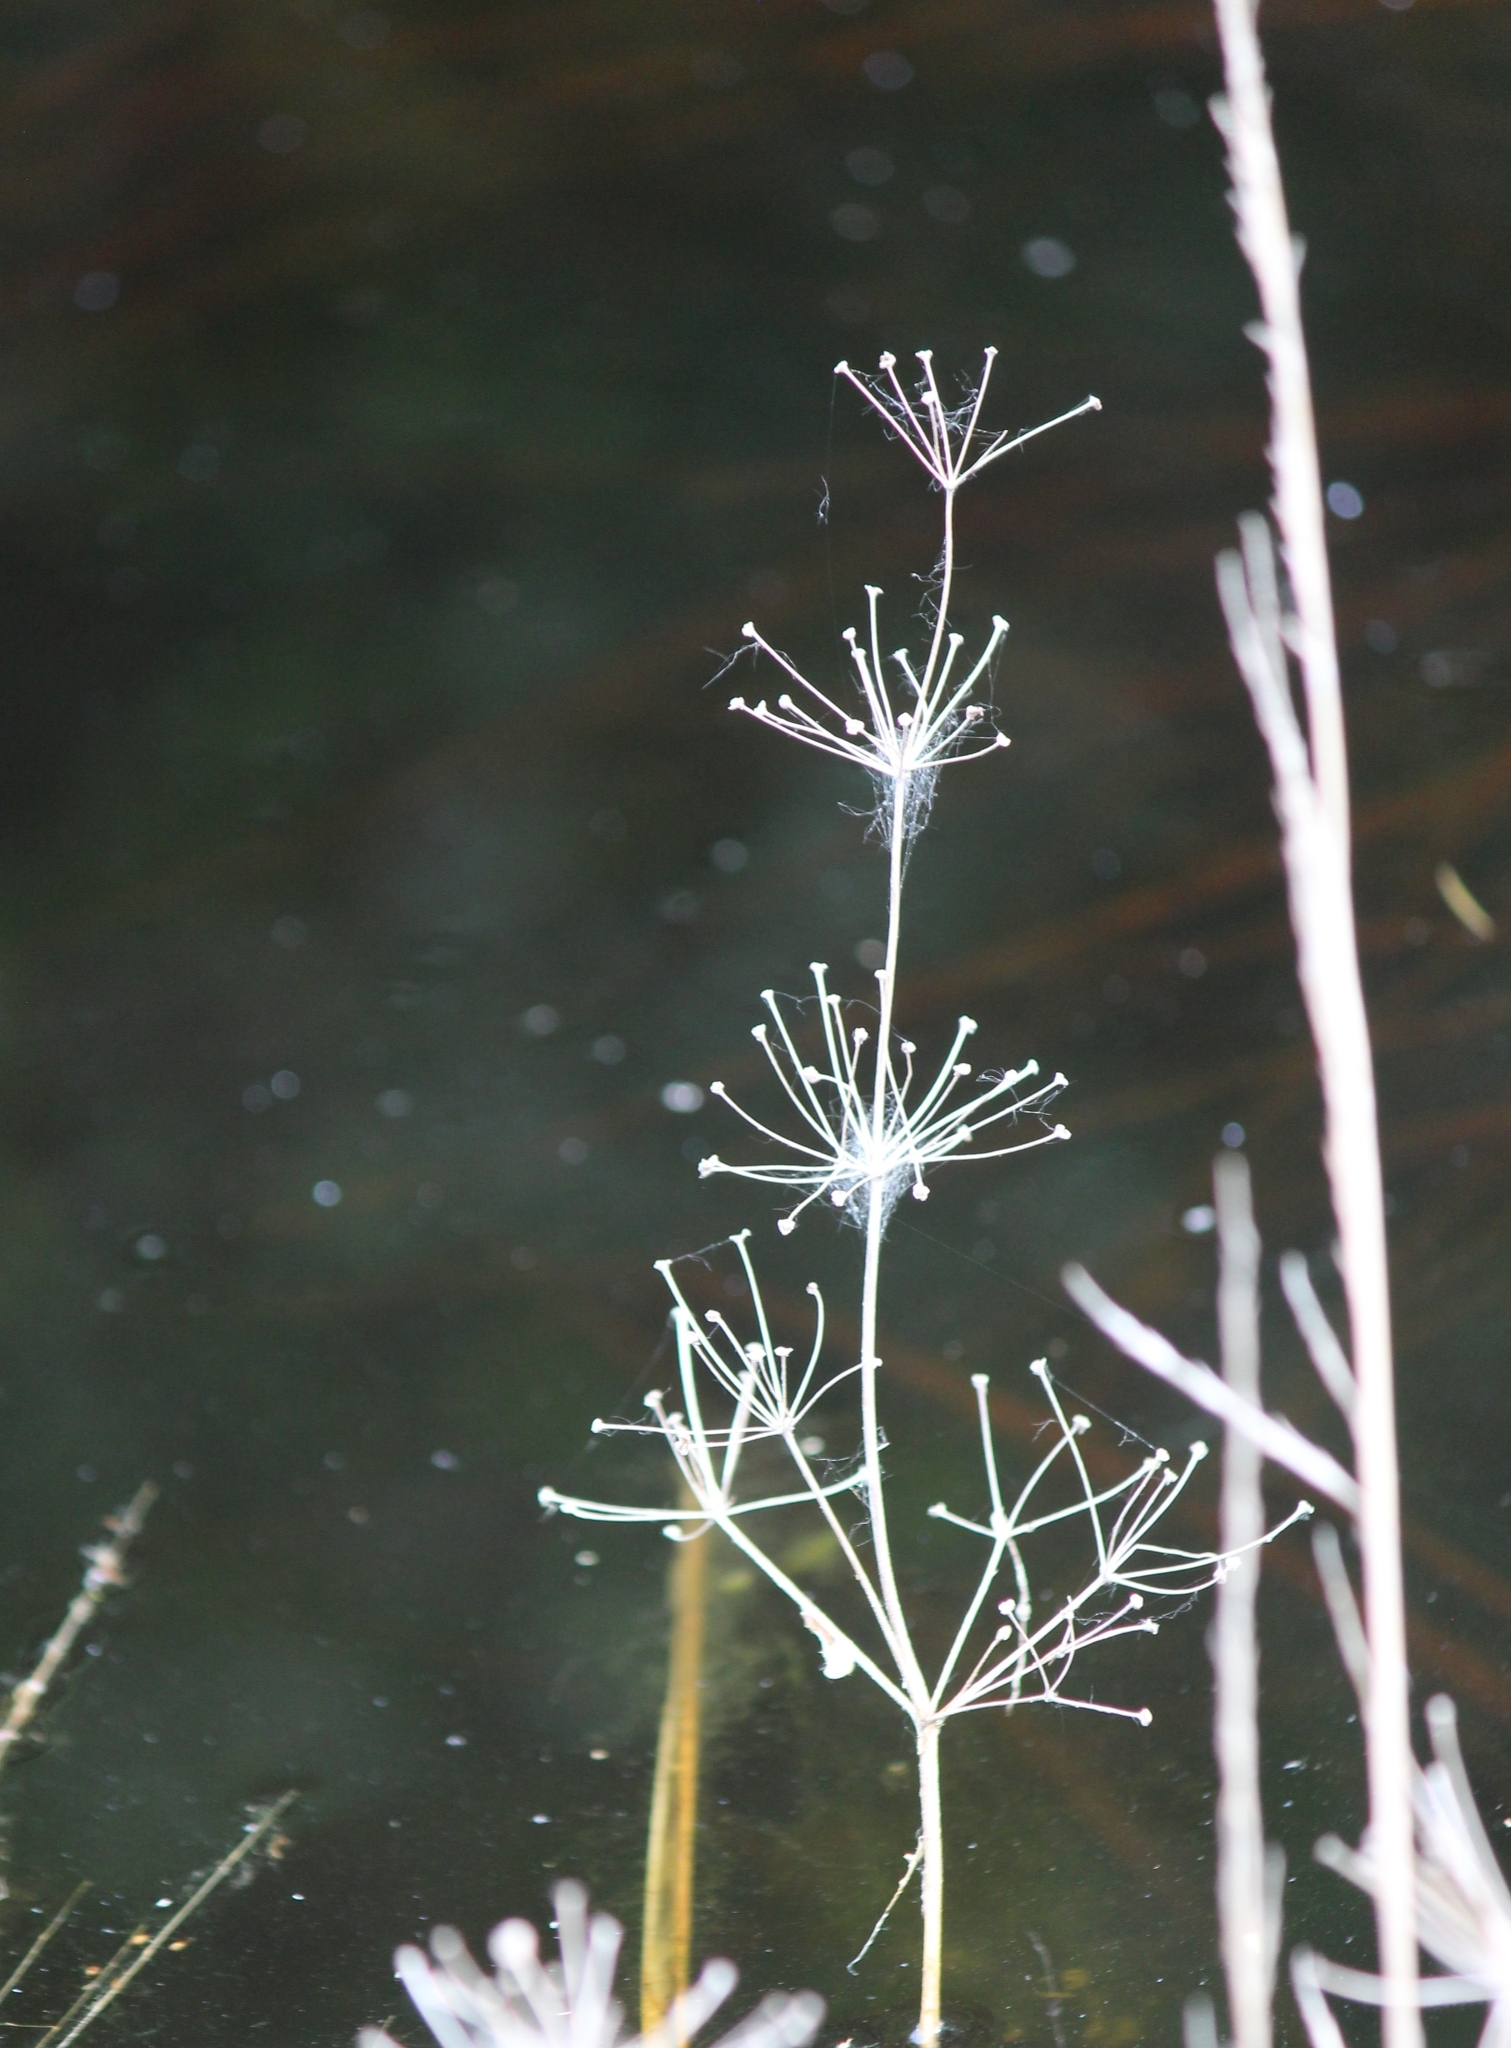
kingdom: Plantae
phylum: Tracheophyta
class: Liliopsida
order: Alismatales
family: Alismataceae
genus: Alisma
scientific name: Alisma plantago-aquatica
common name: Water-plantain
